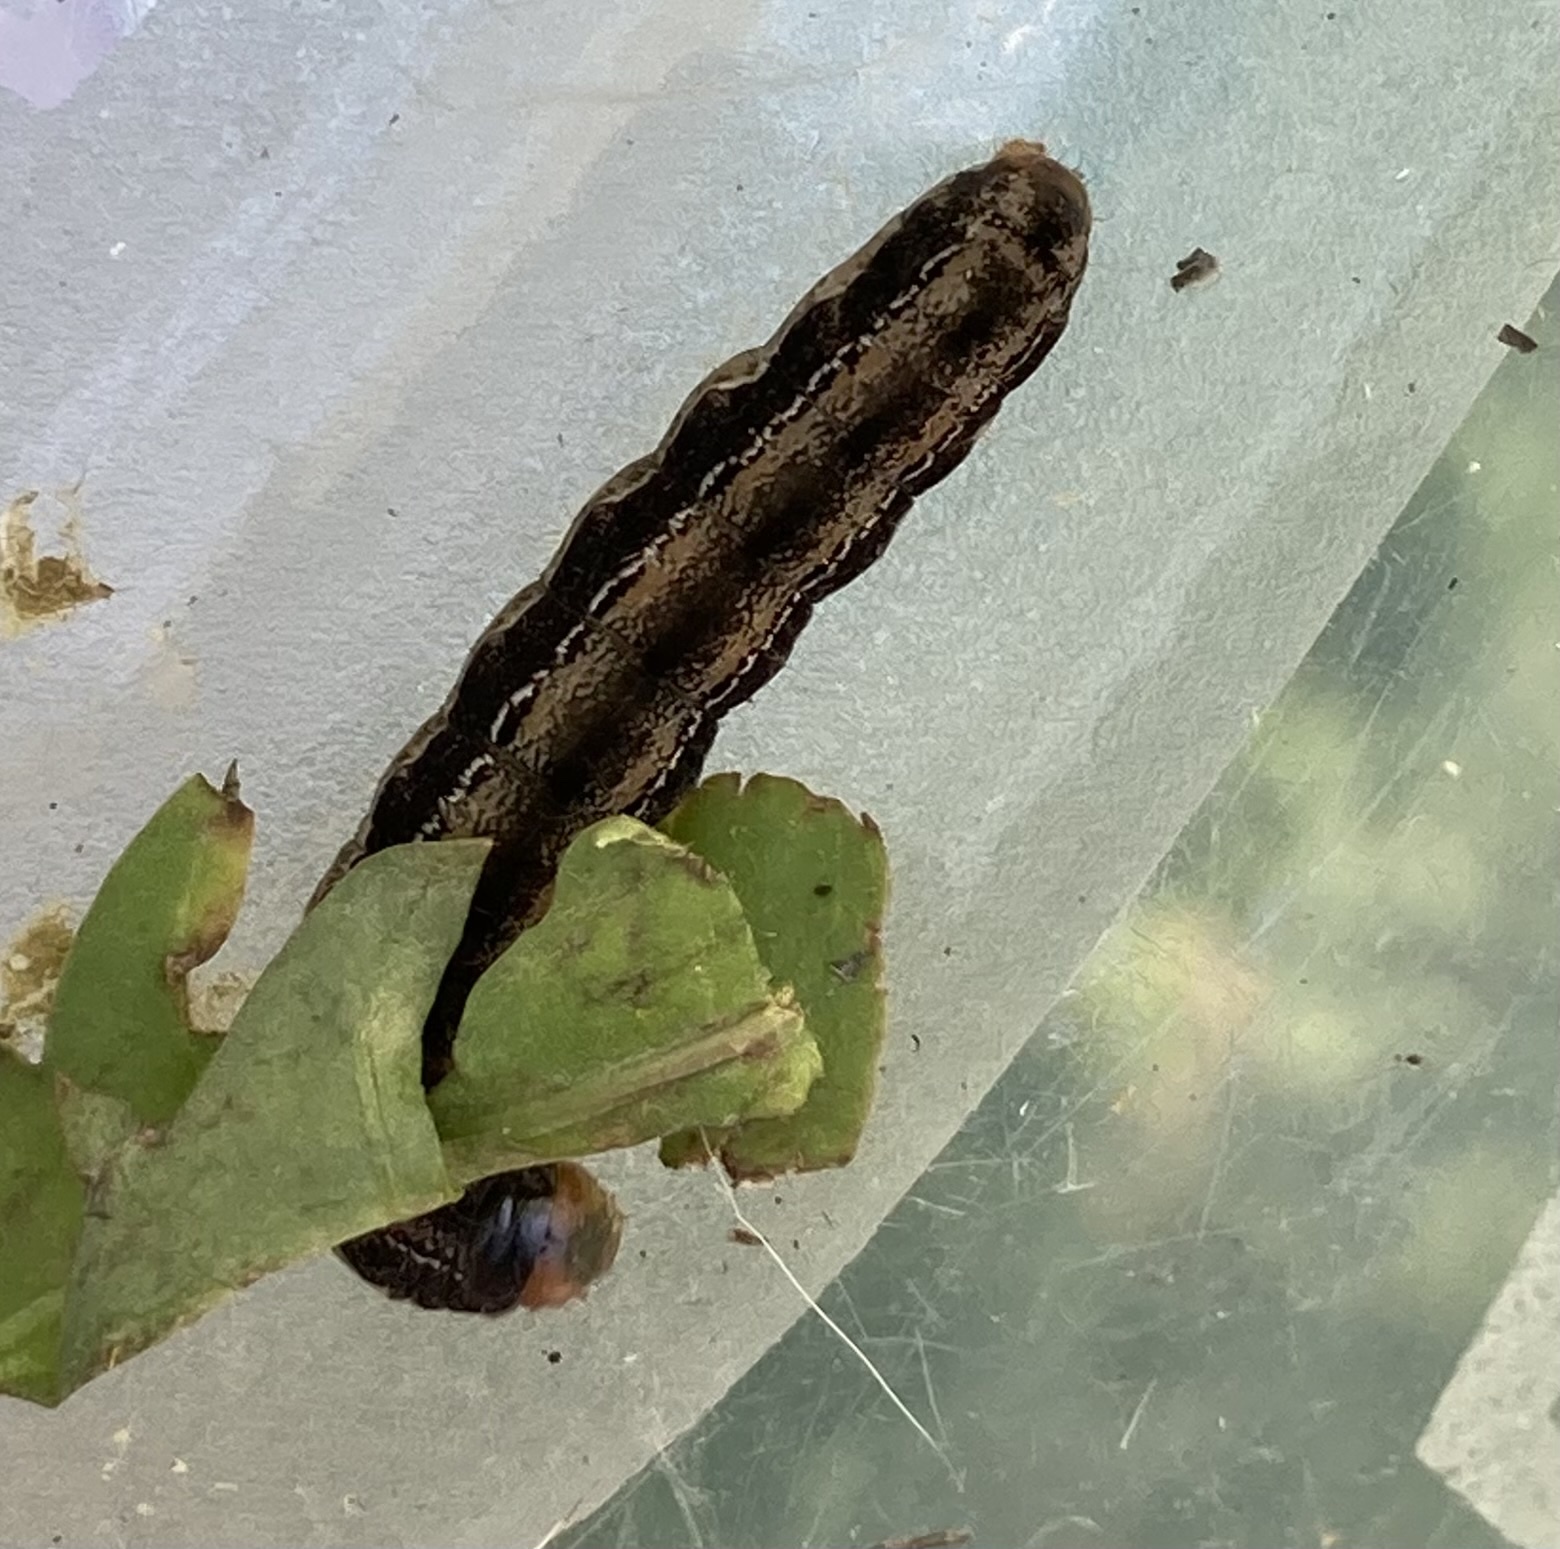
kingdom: Animalia
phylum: Arthropoda
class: Insecta
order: Lepidoptera
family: Noctuidae
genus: Actebia
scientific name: Actebia fennica
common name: Eversmann's rustic
